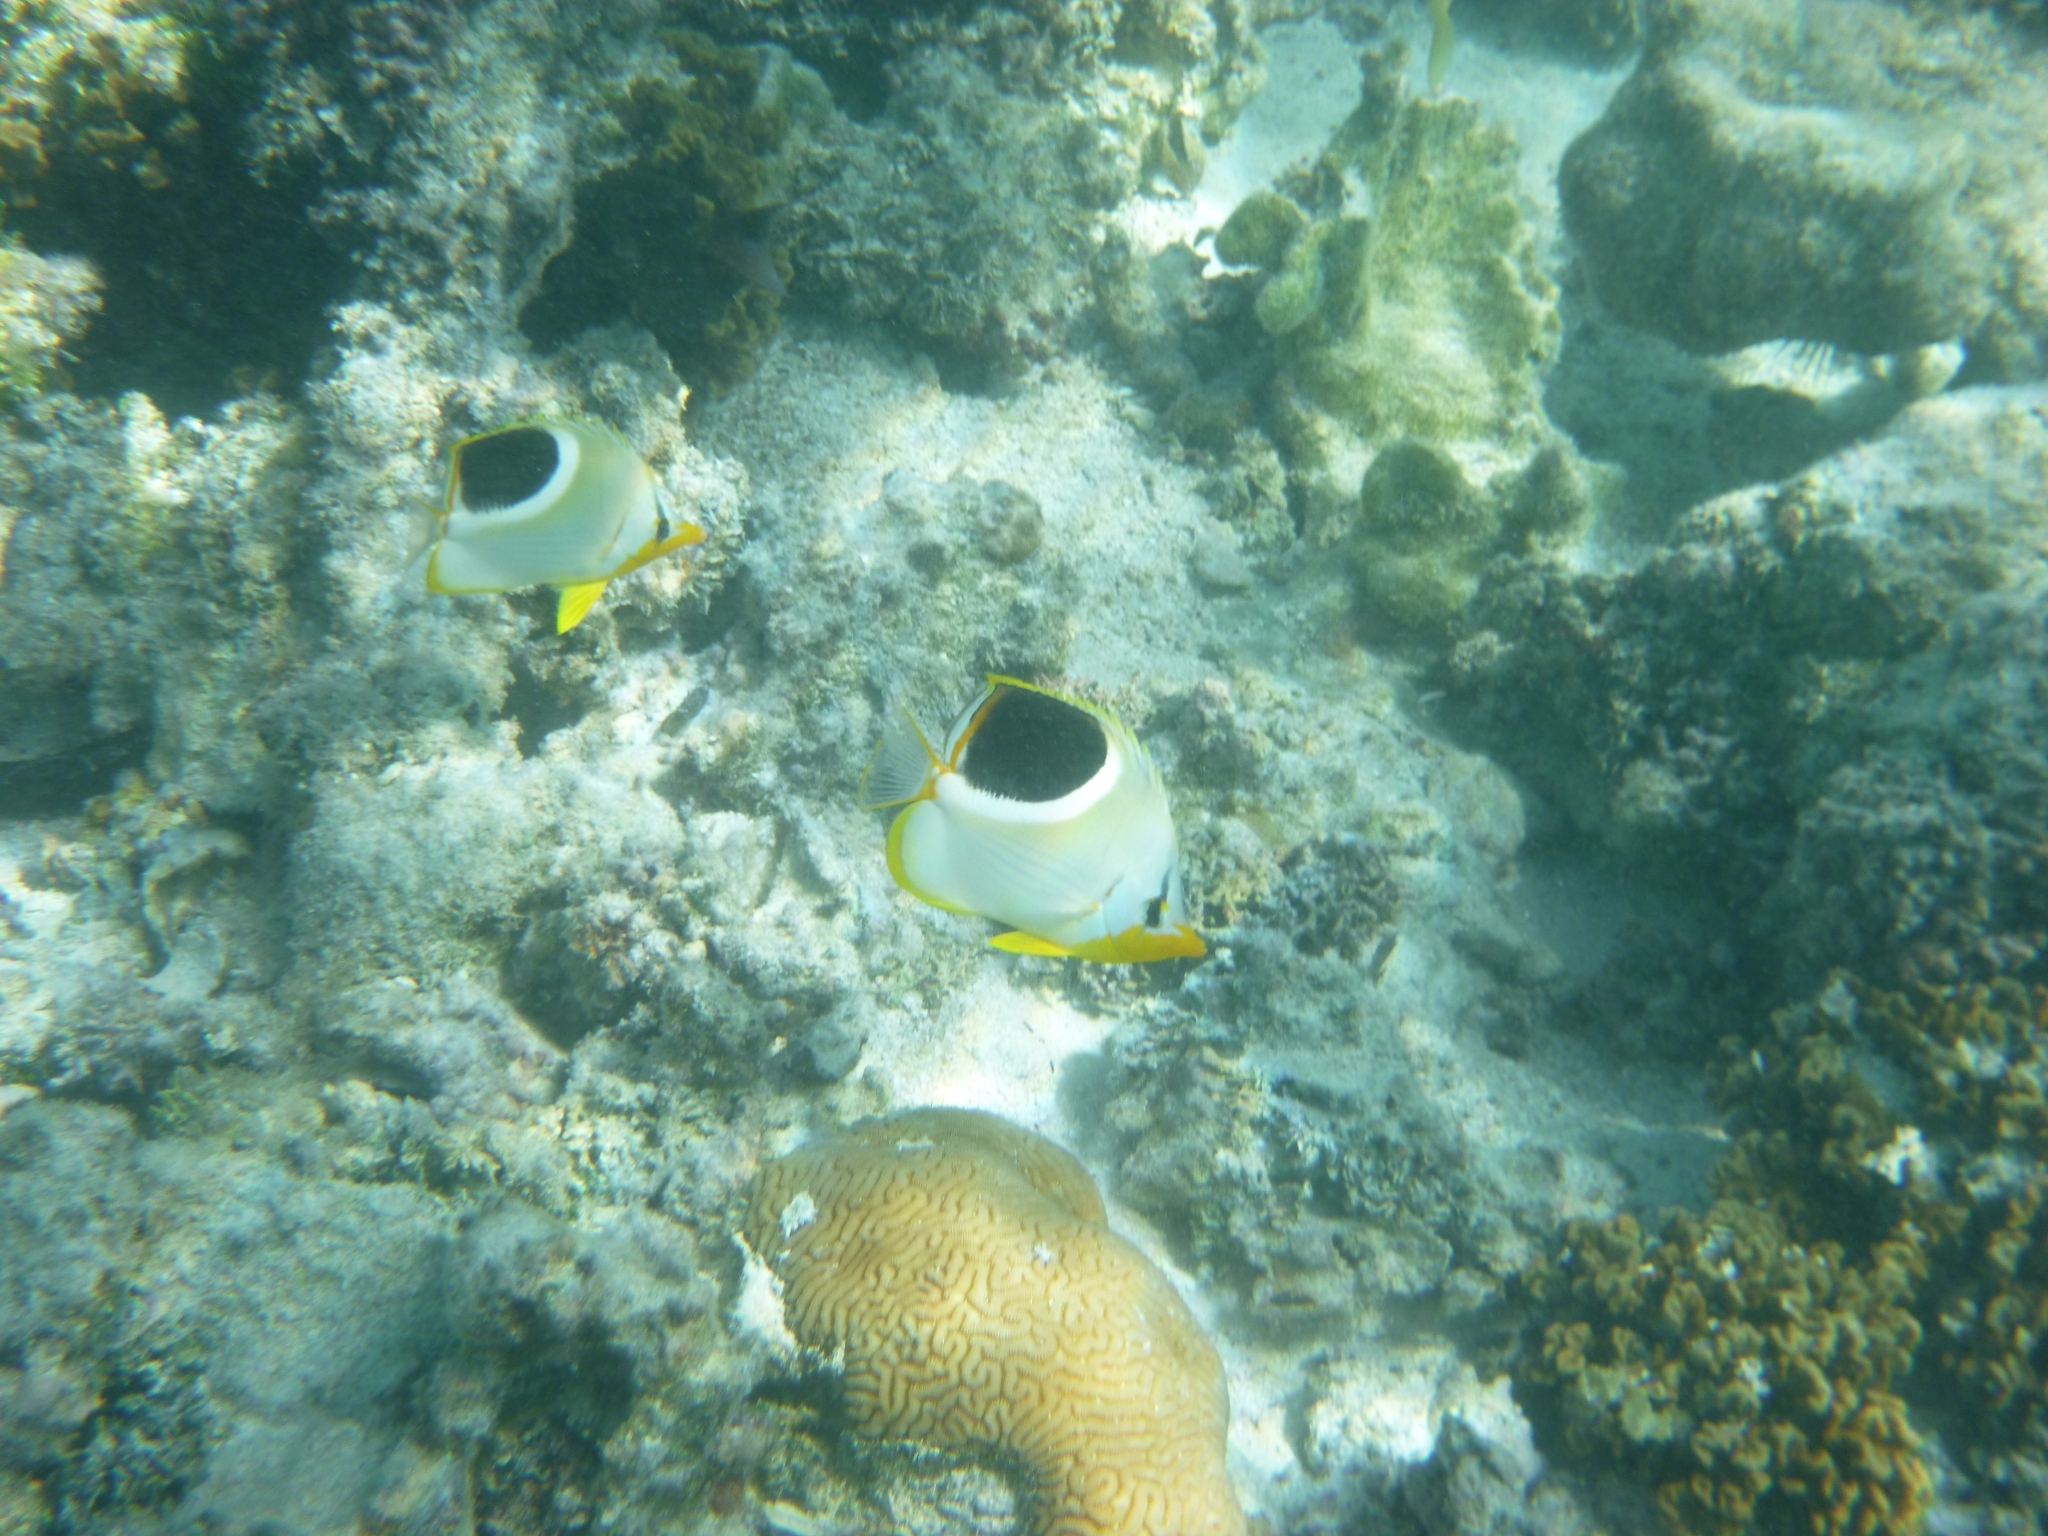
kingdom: Animalia
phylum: Chordata
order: Perciformes
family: Chaetodontidae
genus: Chaetodon
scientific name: Chaetodon ephippium
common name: Saddled butterflyfish
